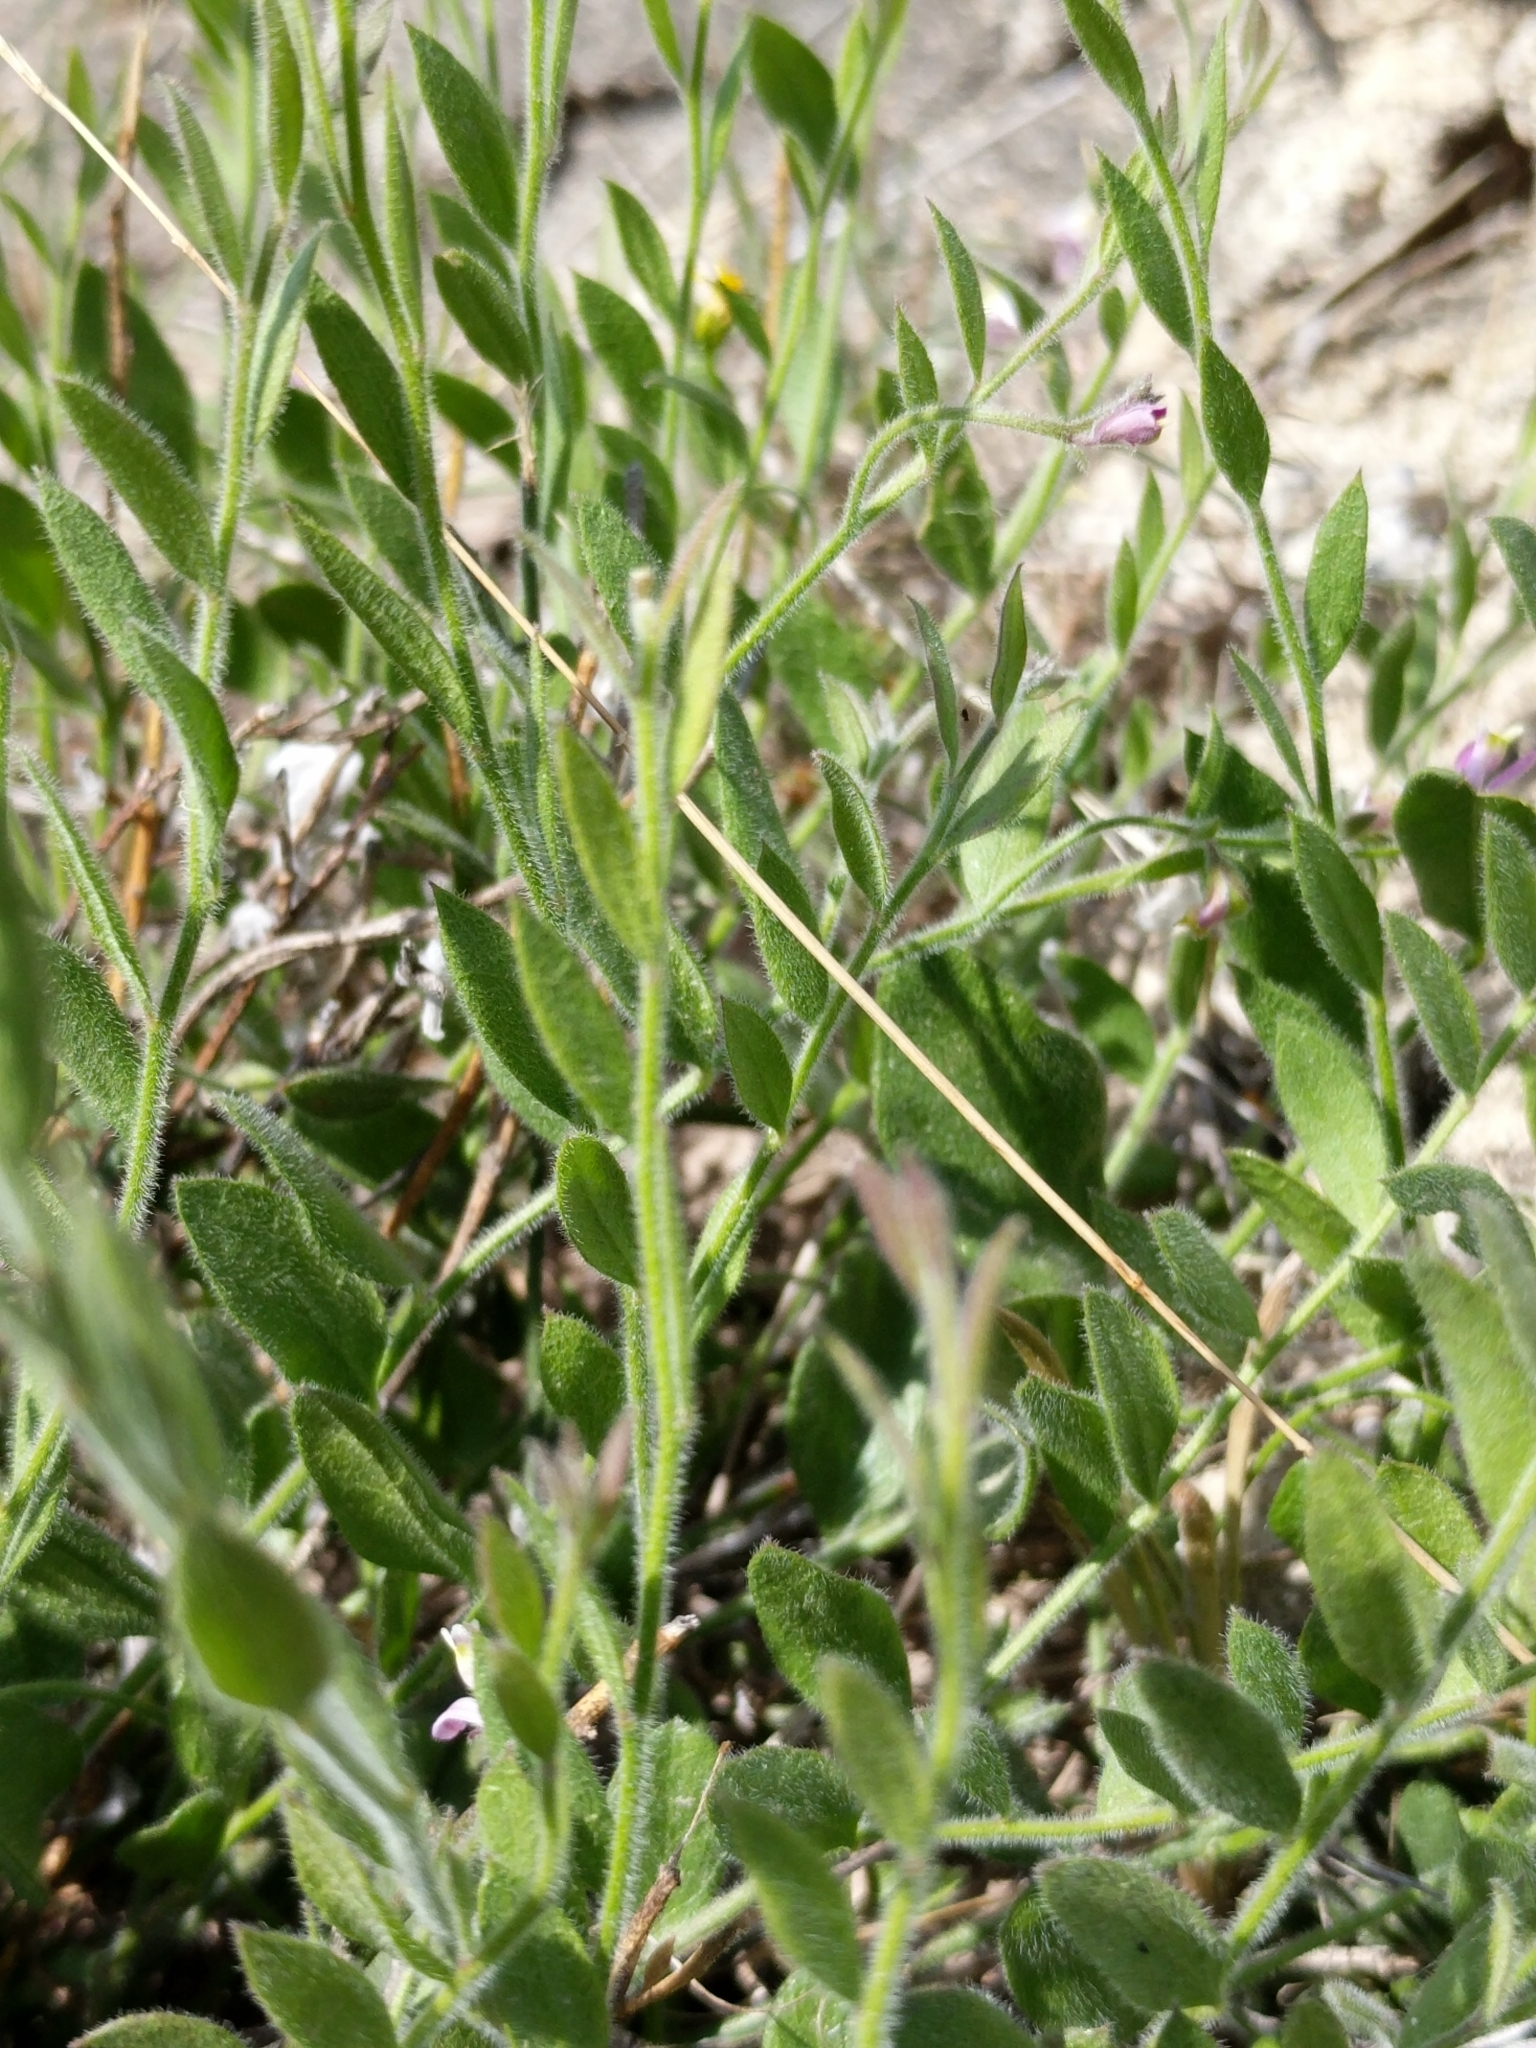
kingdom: Plantae
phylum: Tracheophyta
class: Magnoliopsida
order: Fabales
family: Polygalaceae
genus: Rhinotropis
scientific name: Rhinotropis lindheimeri
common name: Shrubby milkwort
